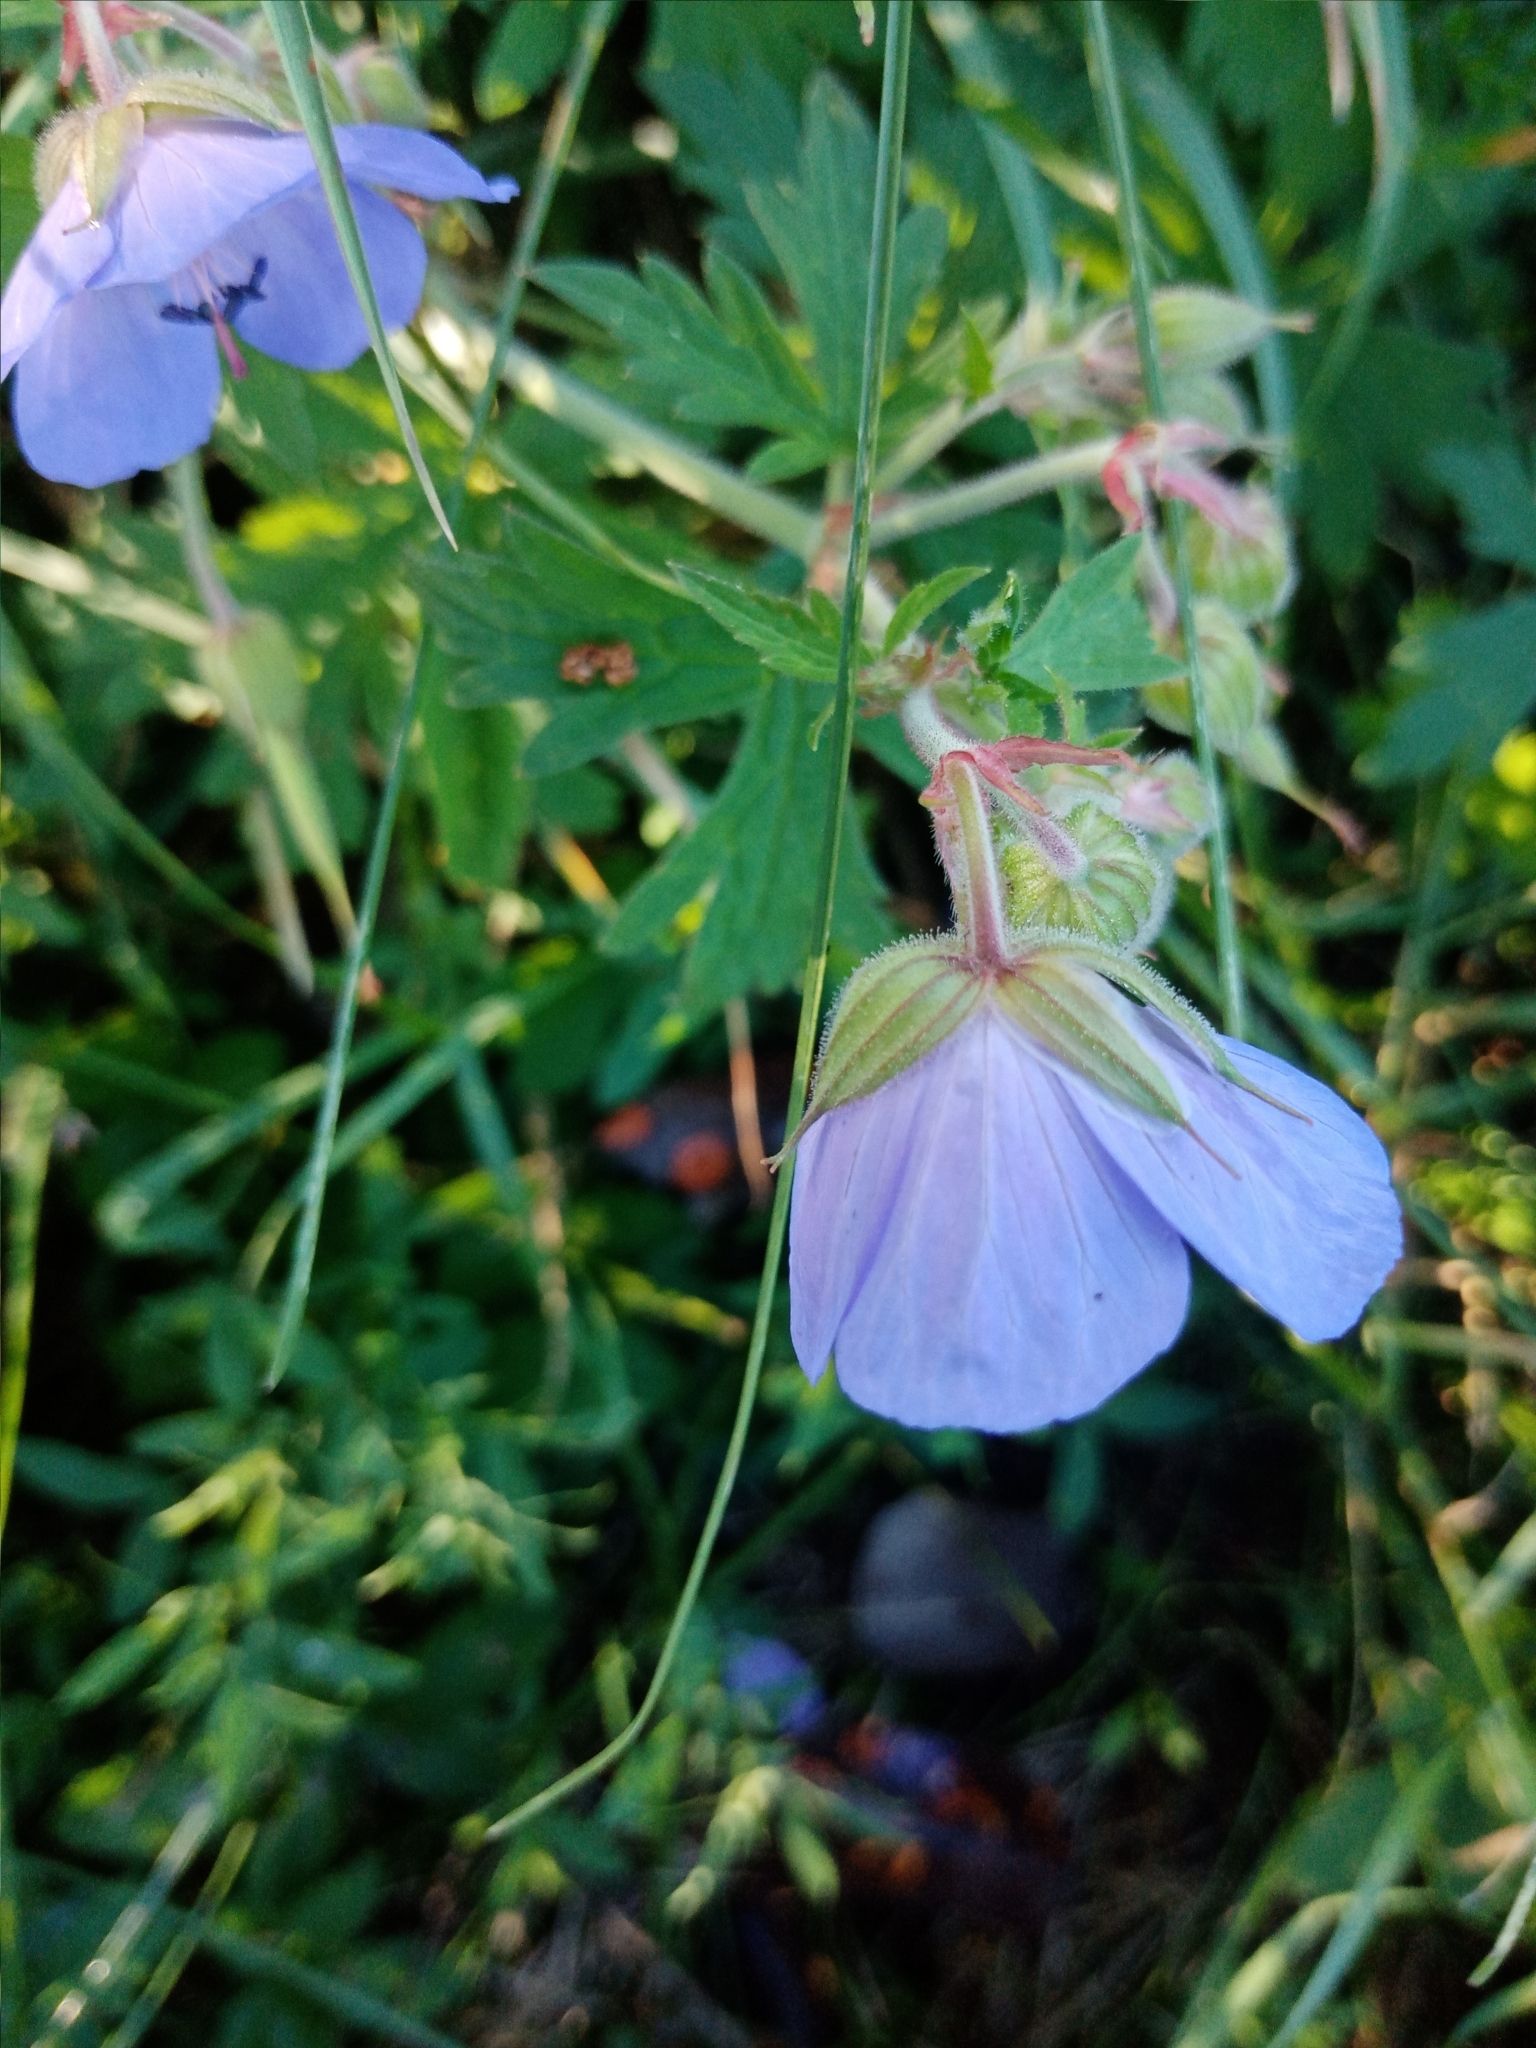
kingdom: Plantae
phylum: Tracheophyta
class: Magnoliopsida
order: Geraniales
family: Geraniaceae
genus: Geranium
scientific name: Geranium pratense
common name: Meadow crane's-bill
